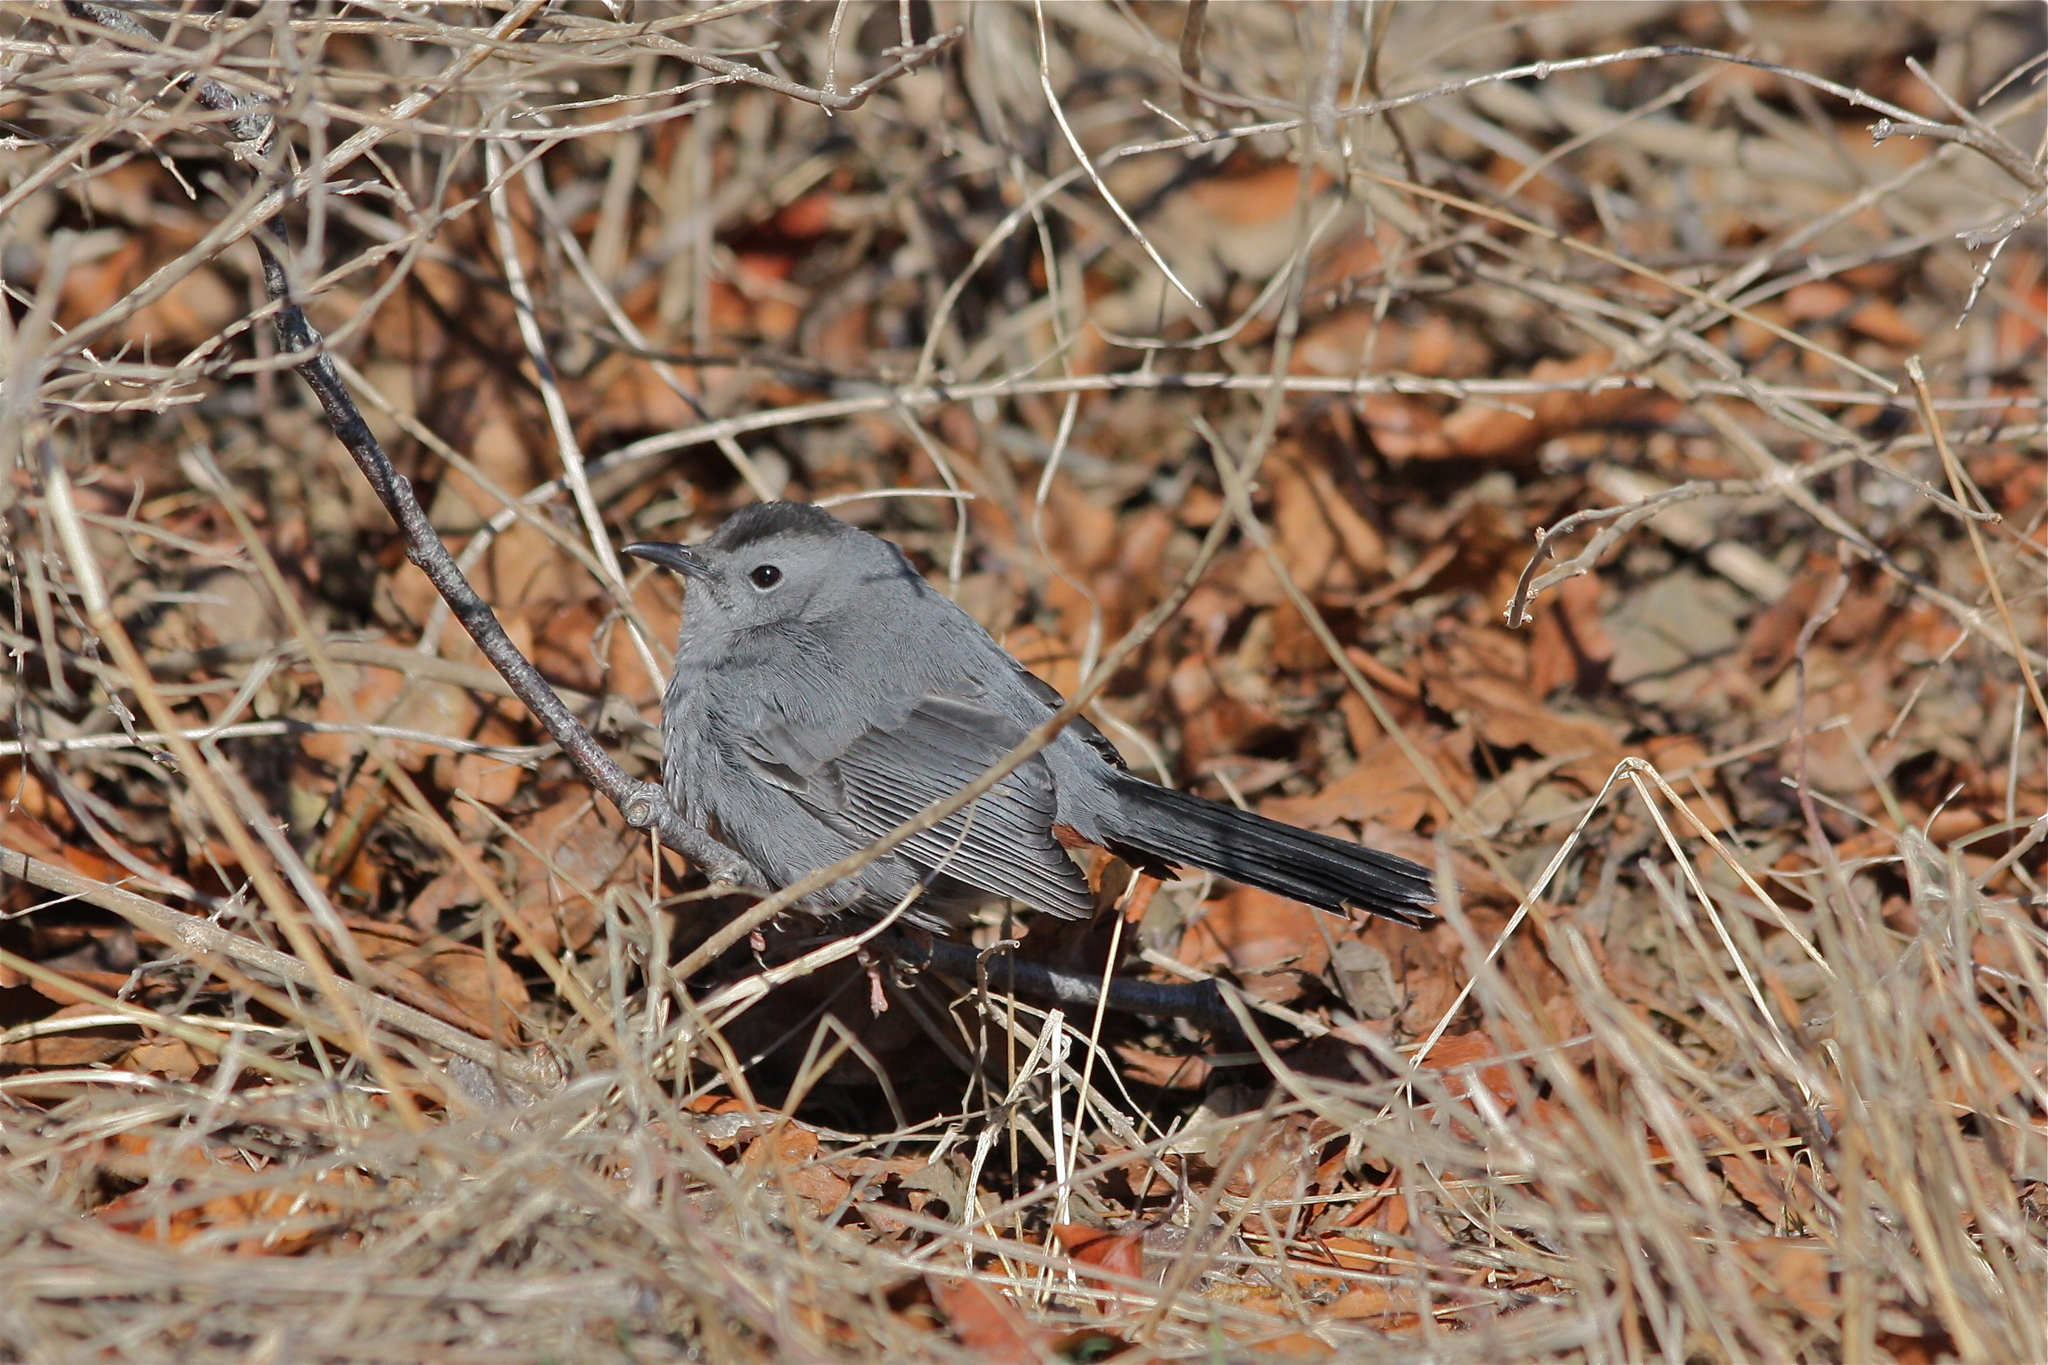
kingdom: Animalia
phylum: Chordata
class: Aves
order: Passeriformes
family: Mimidae
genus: Dumetella
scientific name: Dumetella carolinensis
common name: Gray catbird
